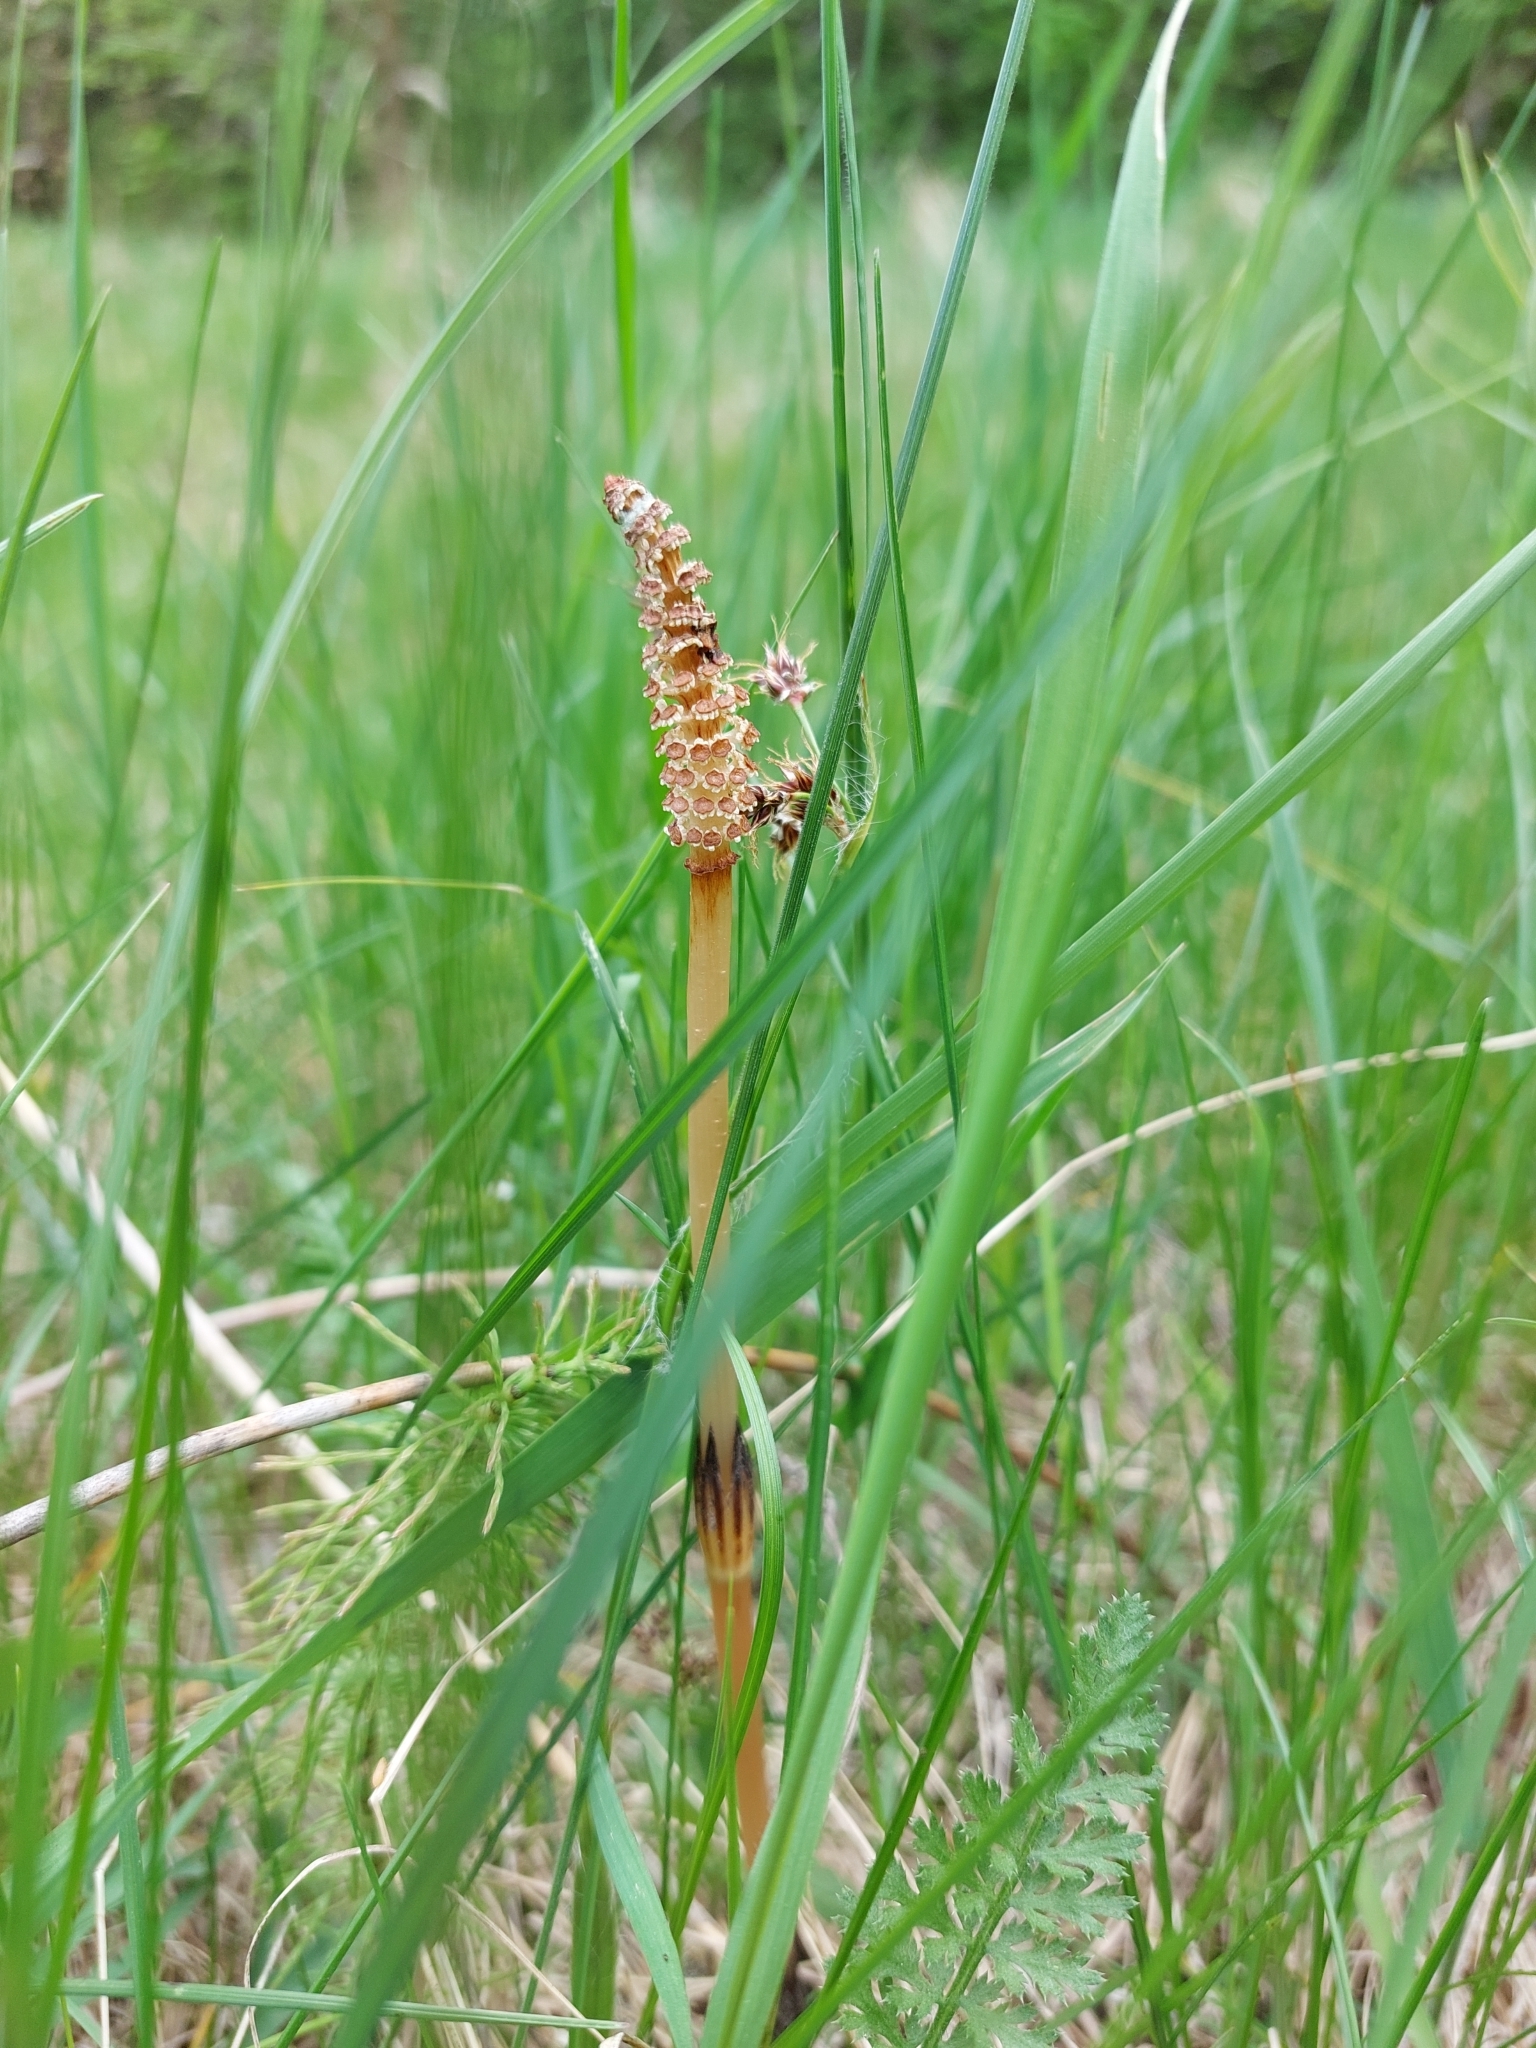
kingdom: Plantae
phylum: Tracheophyta
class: Polypodiopsida
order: Equisetales
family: Equisetaceae
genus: Equisetum
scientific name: Equisetum arvense
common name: Field horsetail
